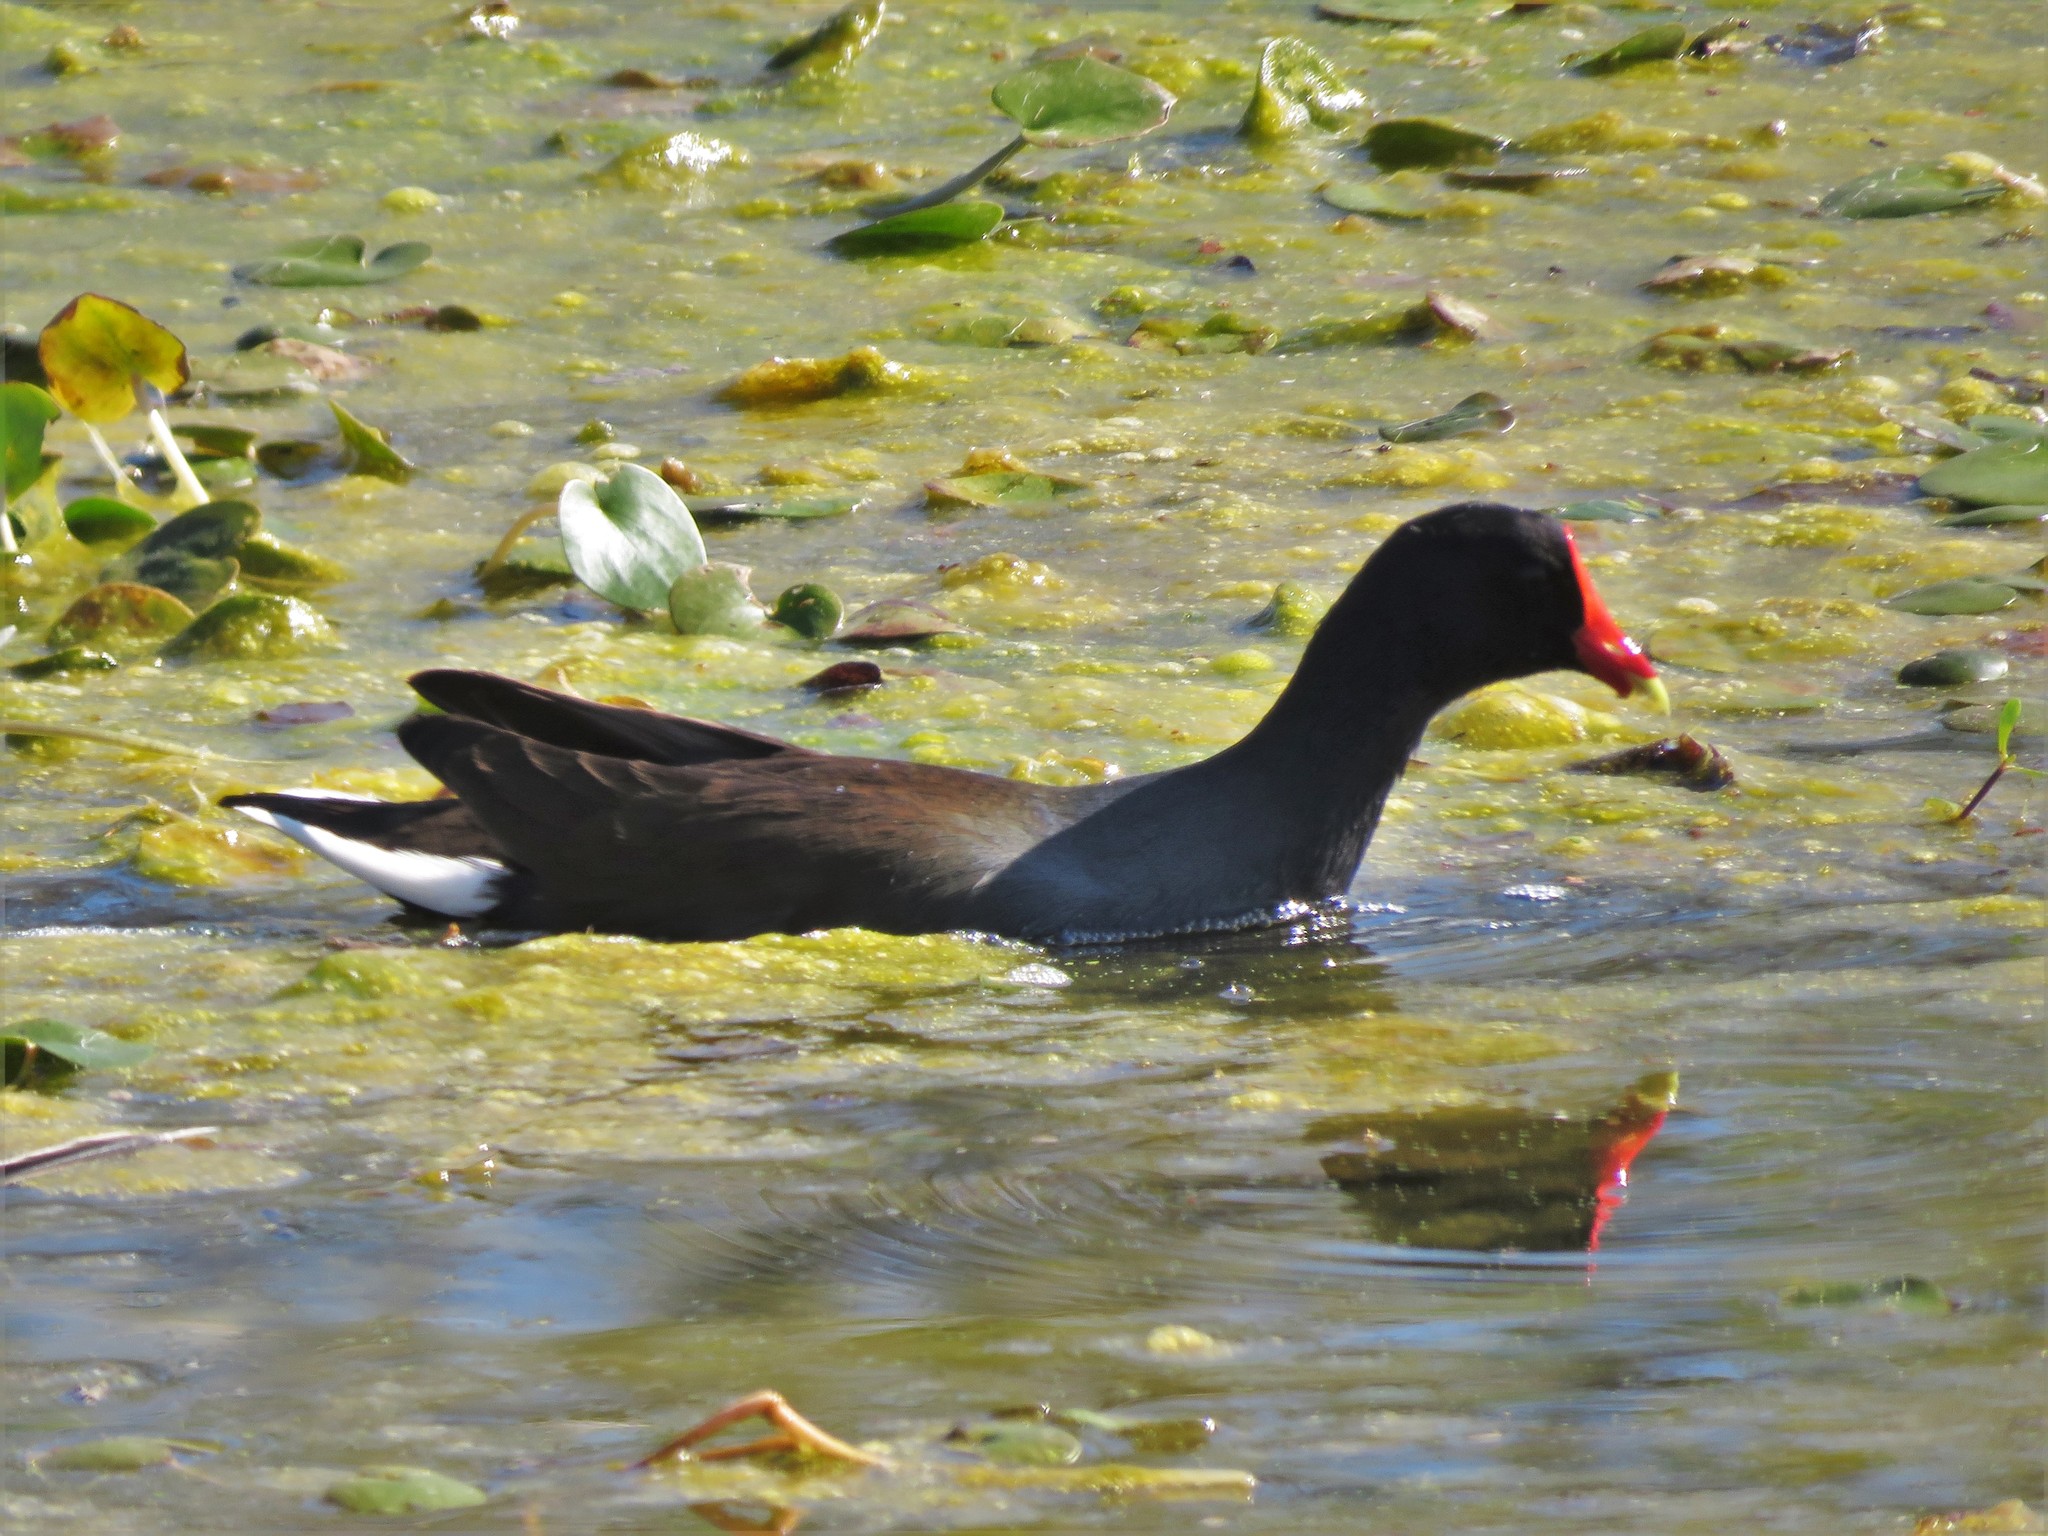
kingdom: Animalia
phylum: Chordata
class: Aves
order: Gruiformes
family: Rallidae
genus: Gallinula
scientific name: Gallinula chloropus
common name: Common moorhen
